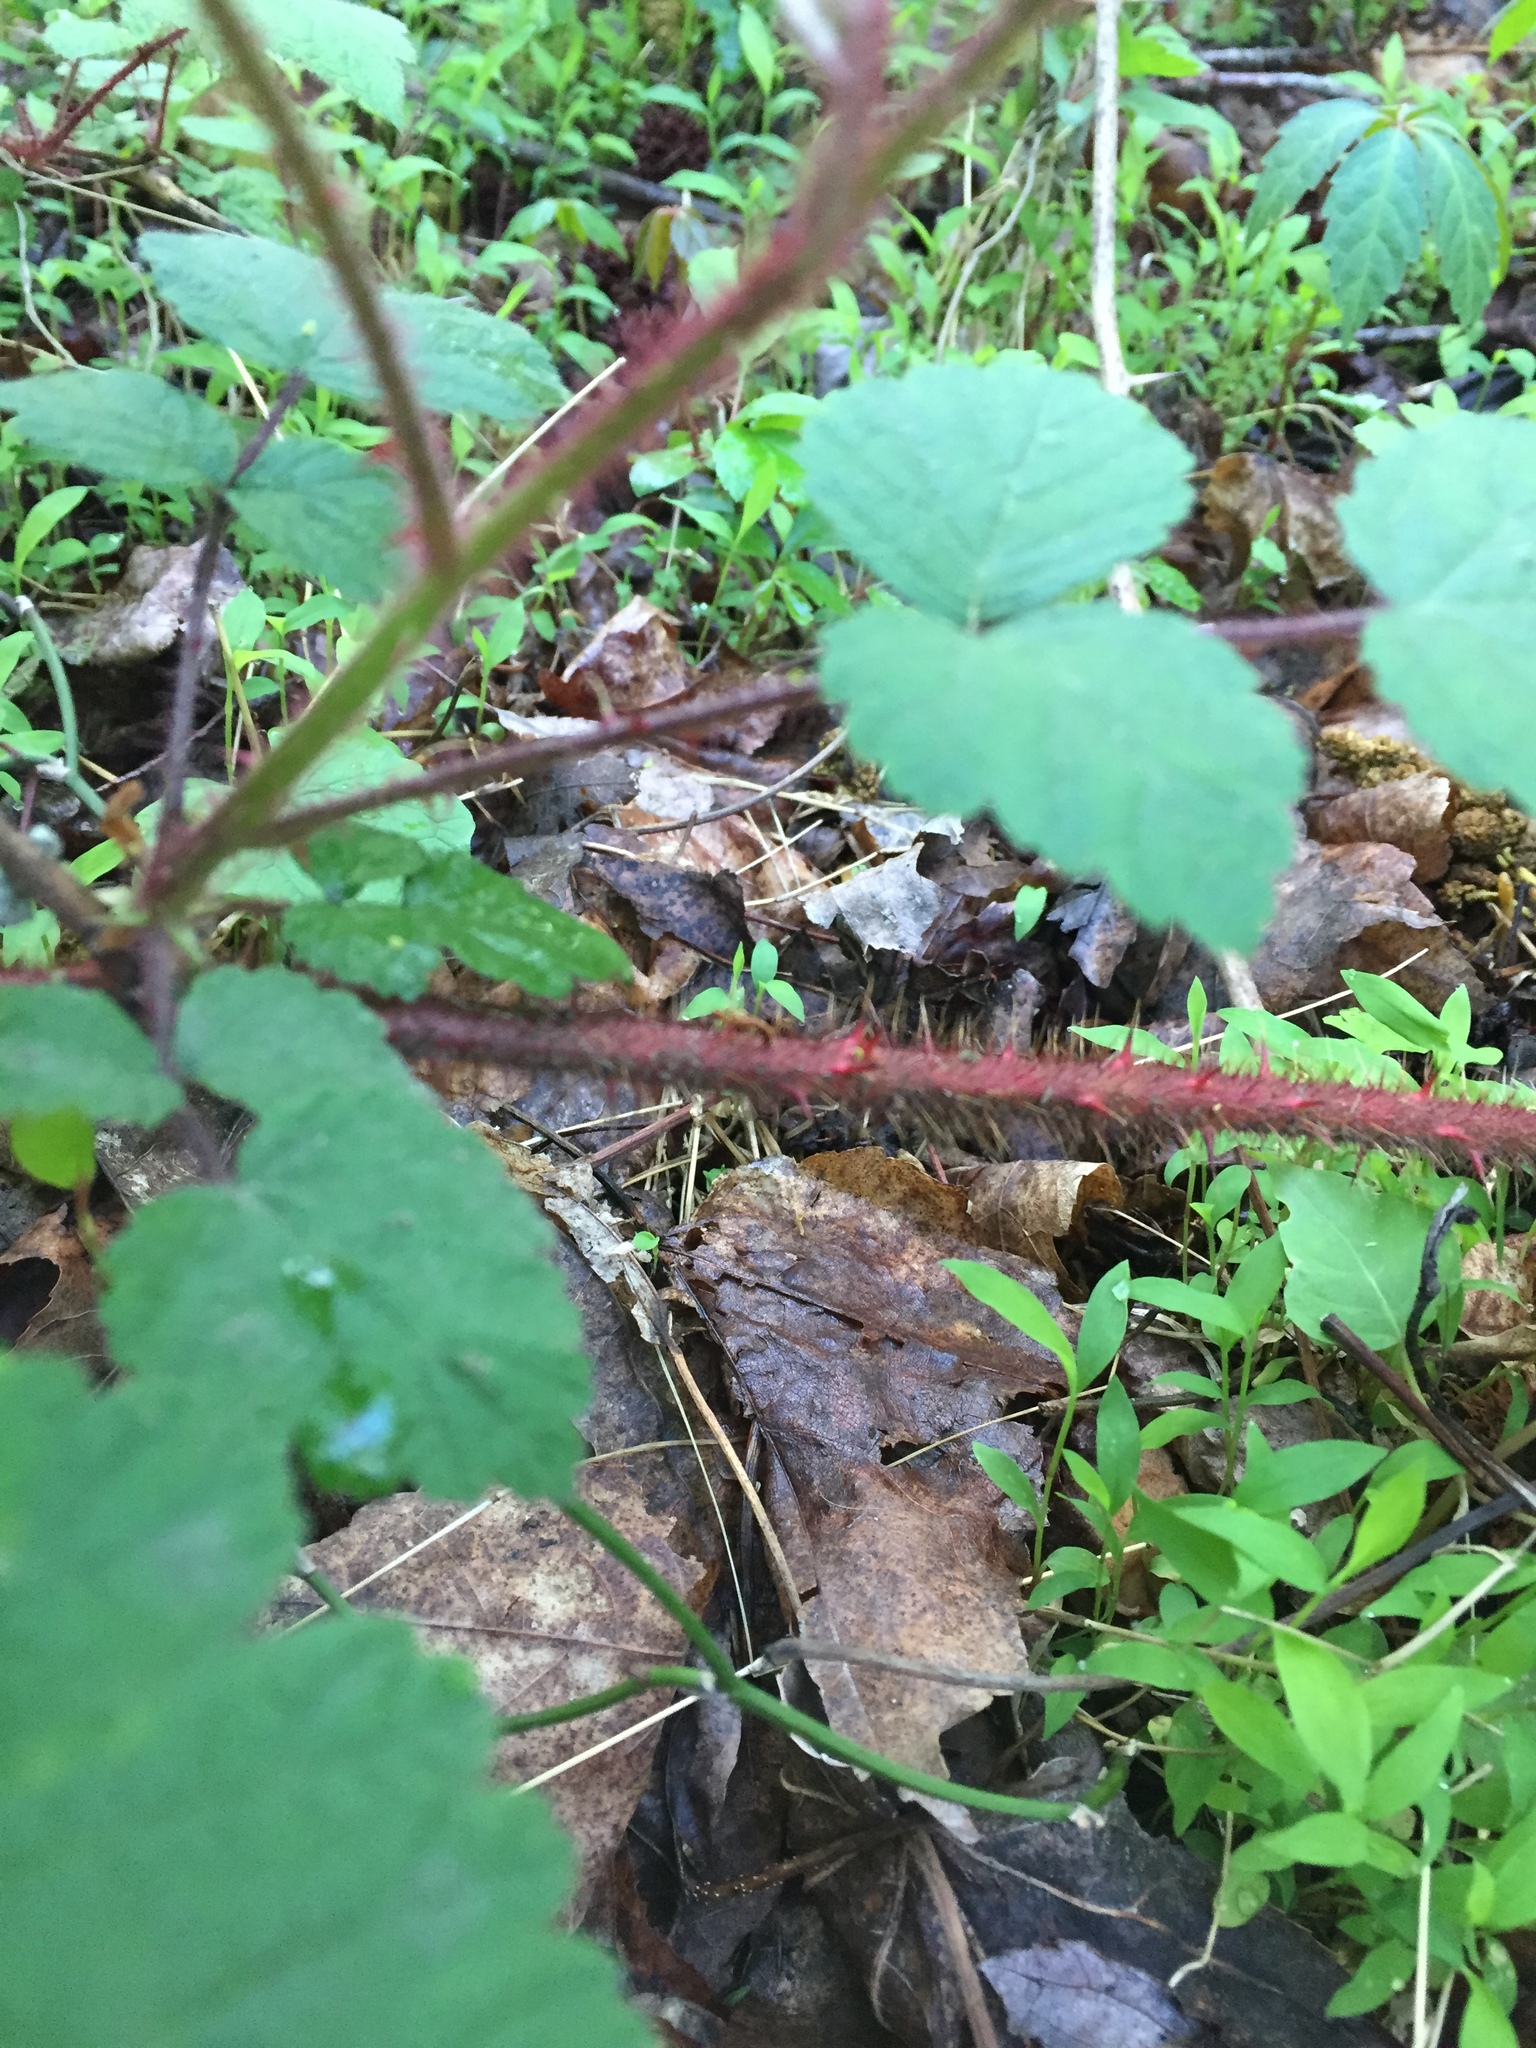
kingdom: Plantae
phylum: Tracheophyta
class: Magnoliopsida
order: Rosales
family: Rosaceae
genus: Rubus
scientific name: Rubus phoenicolasius
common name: Japanese wineberry
